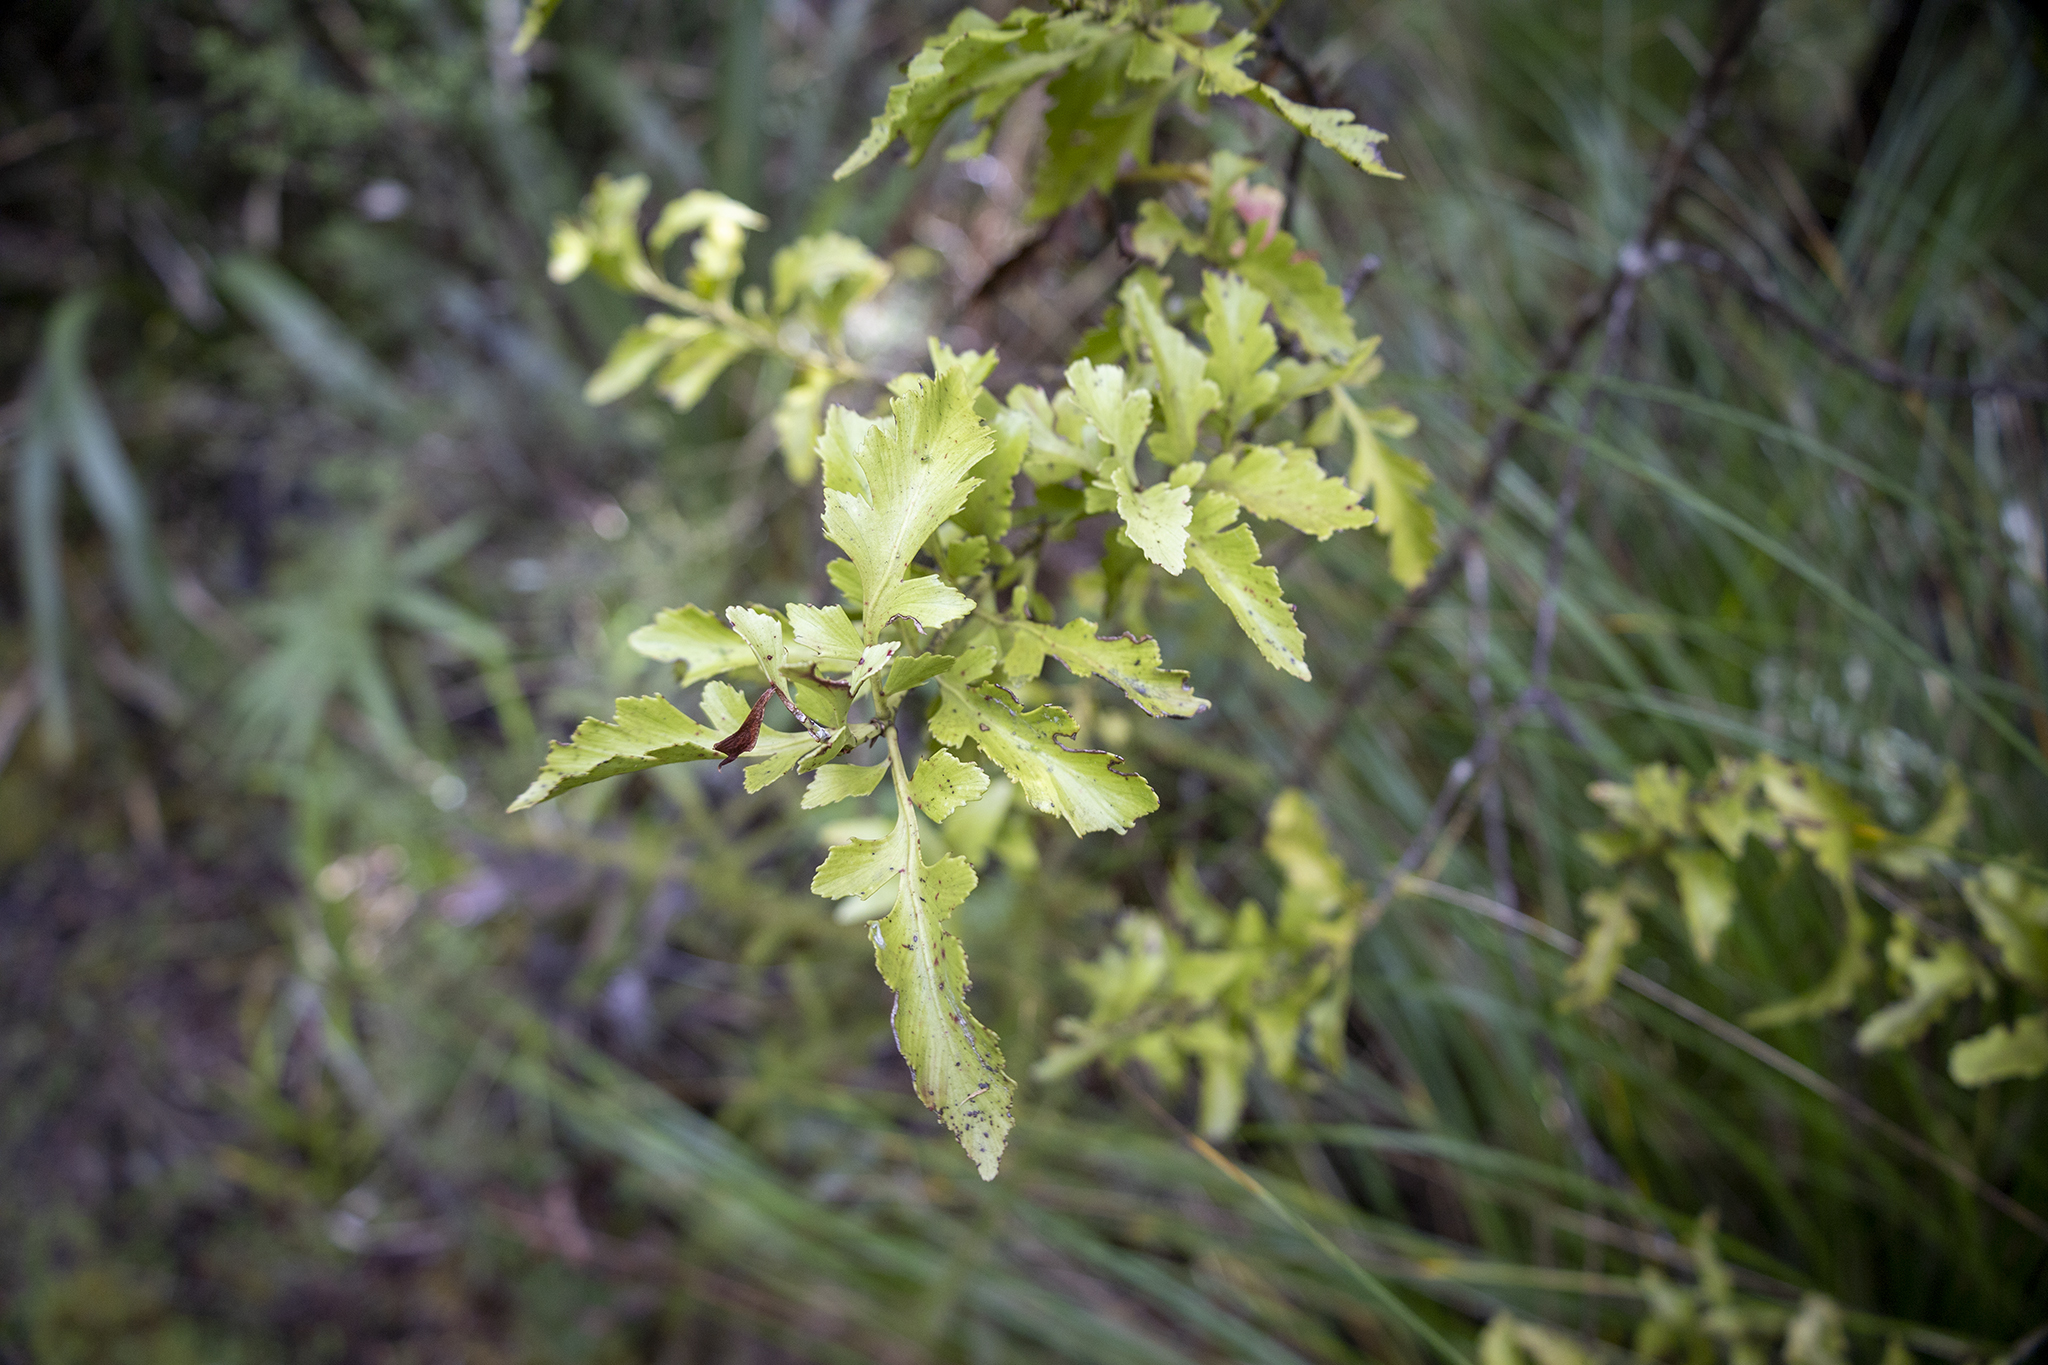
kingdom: Plantae
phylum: Tracheophyta
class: Pinopsida
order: Pinales
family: Phyllocladaceae
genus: Phyllocladus
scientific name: Phyllocladus trichomanoides
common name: Celery pine
